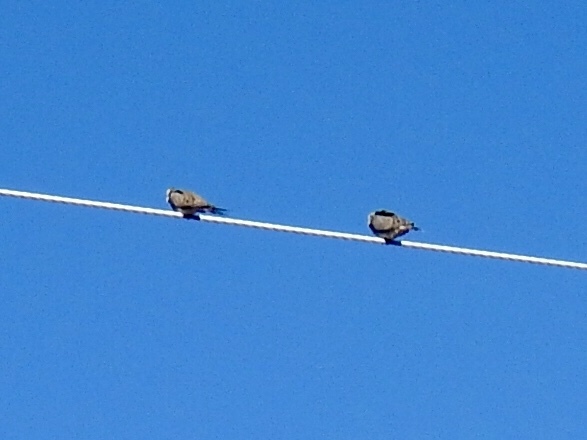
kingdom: Animalia
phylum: Chordata
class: Aves
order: Columbiformes
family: Columbidae
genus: Zenaida
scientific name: Zenaida macroura
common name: Mourning dove
